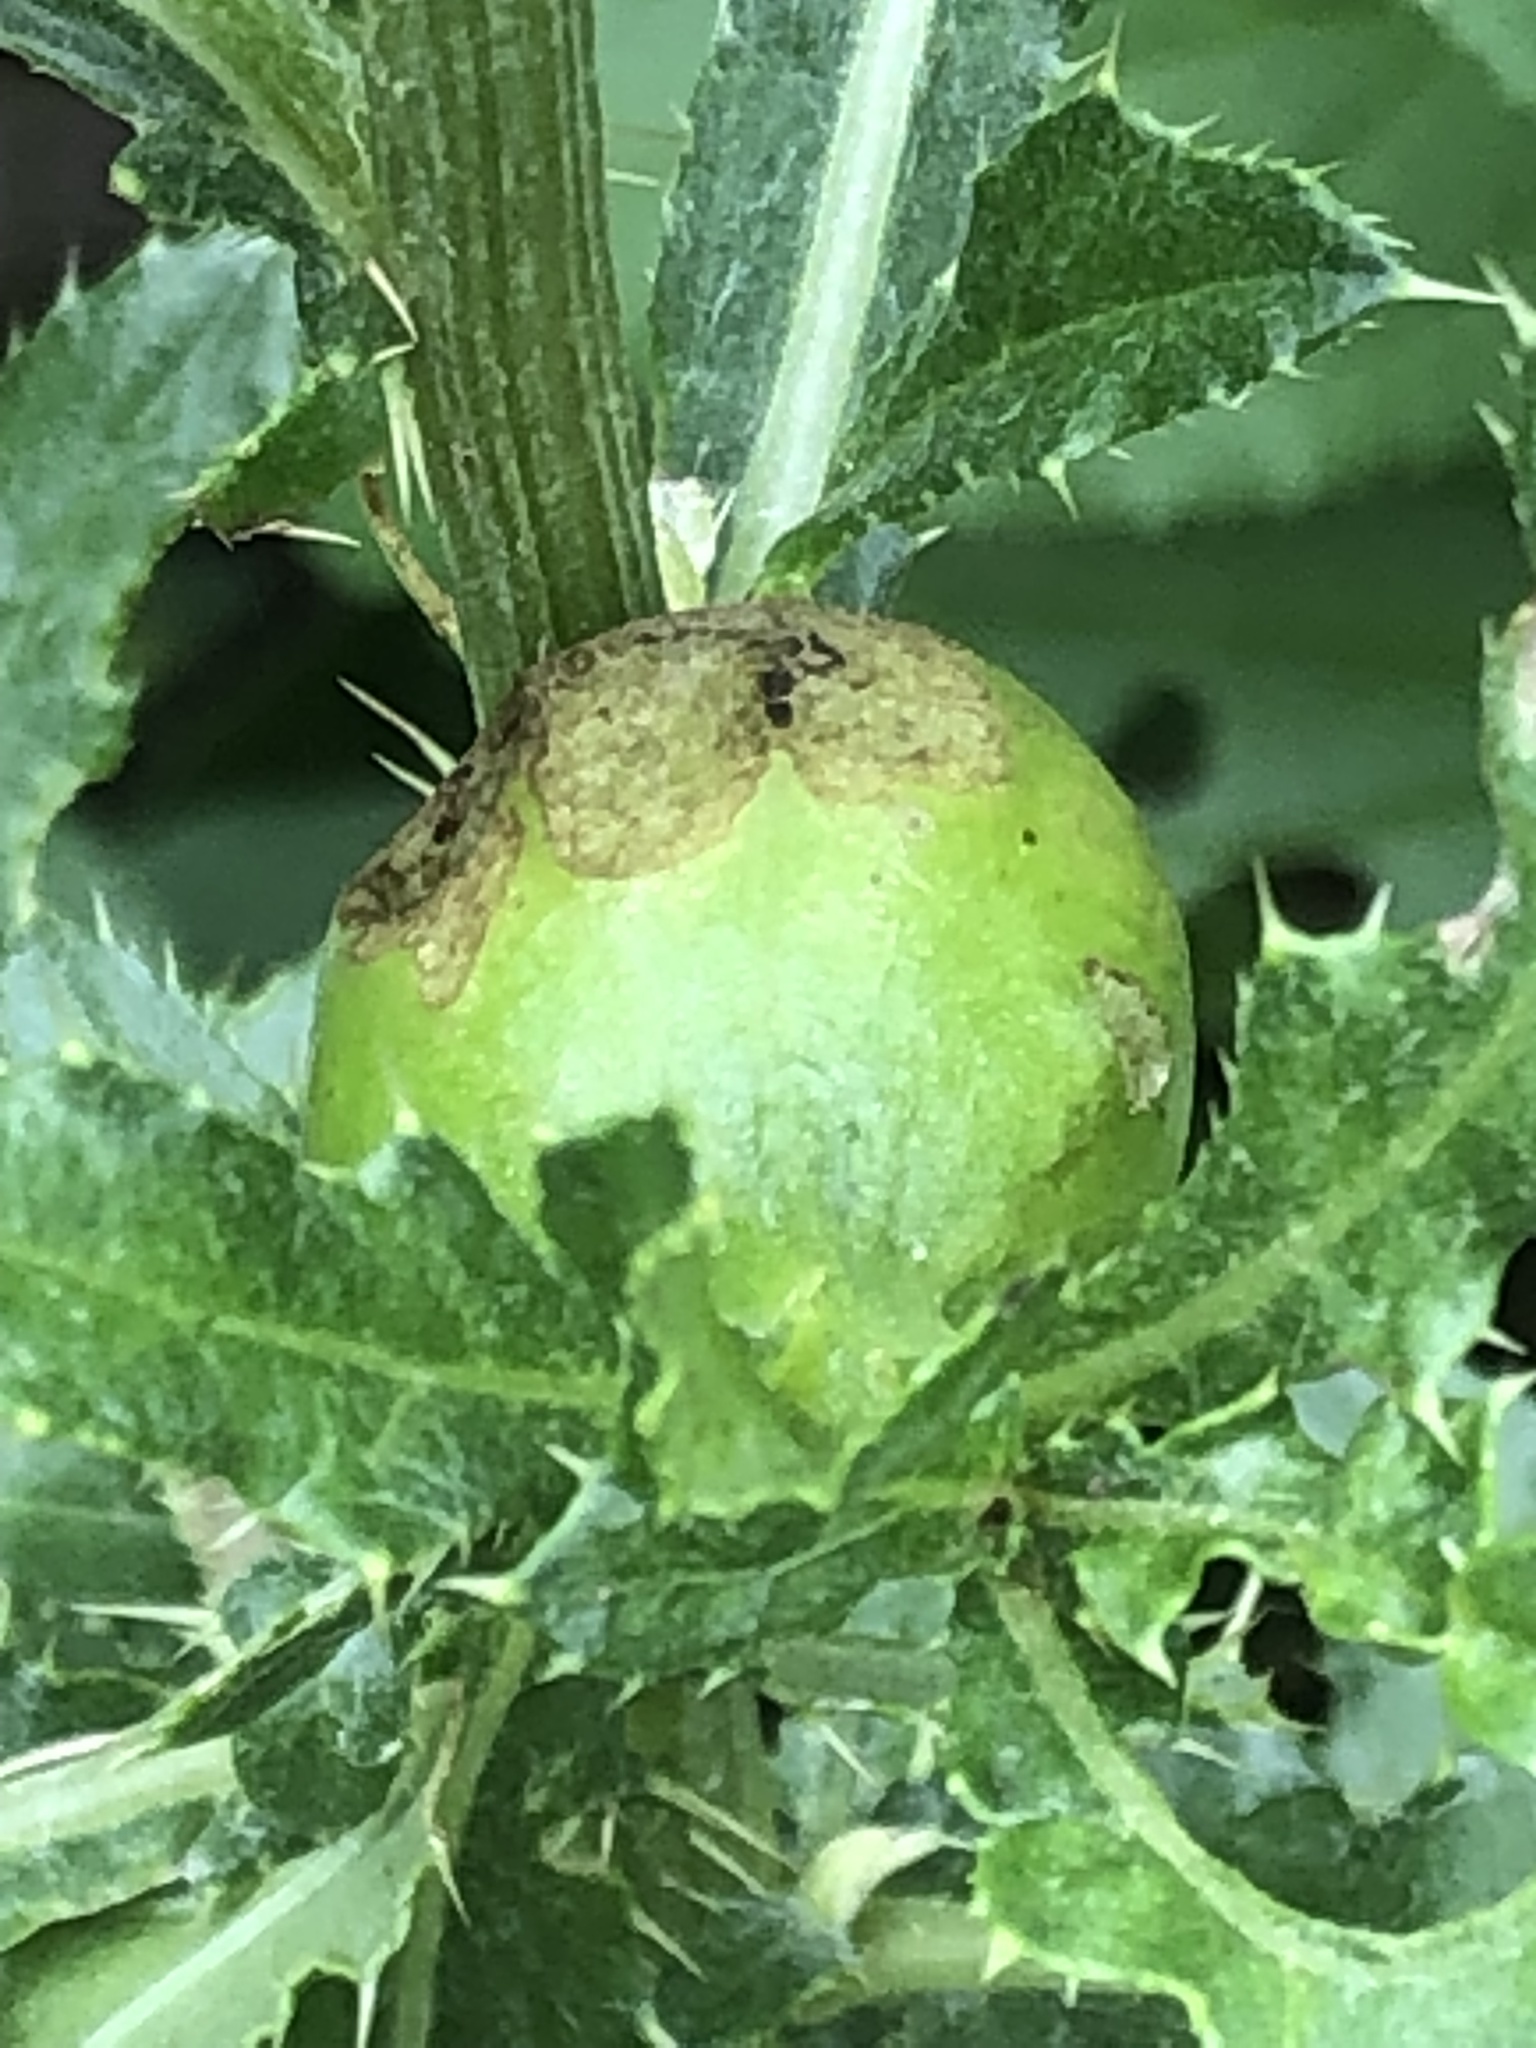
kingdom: Animalia
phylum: Arthropoda
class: Insecta
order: Diptera
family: Tephritidae
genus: Urophora
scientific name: Urophora cardui
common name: Fruit fly
